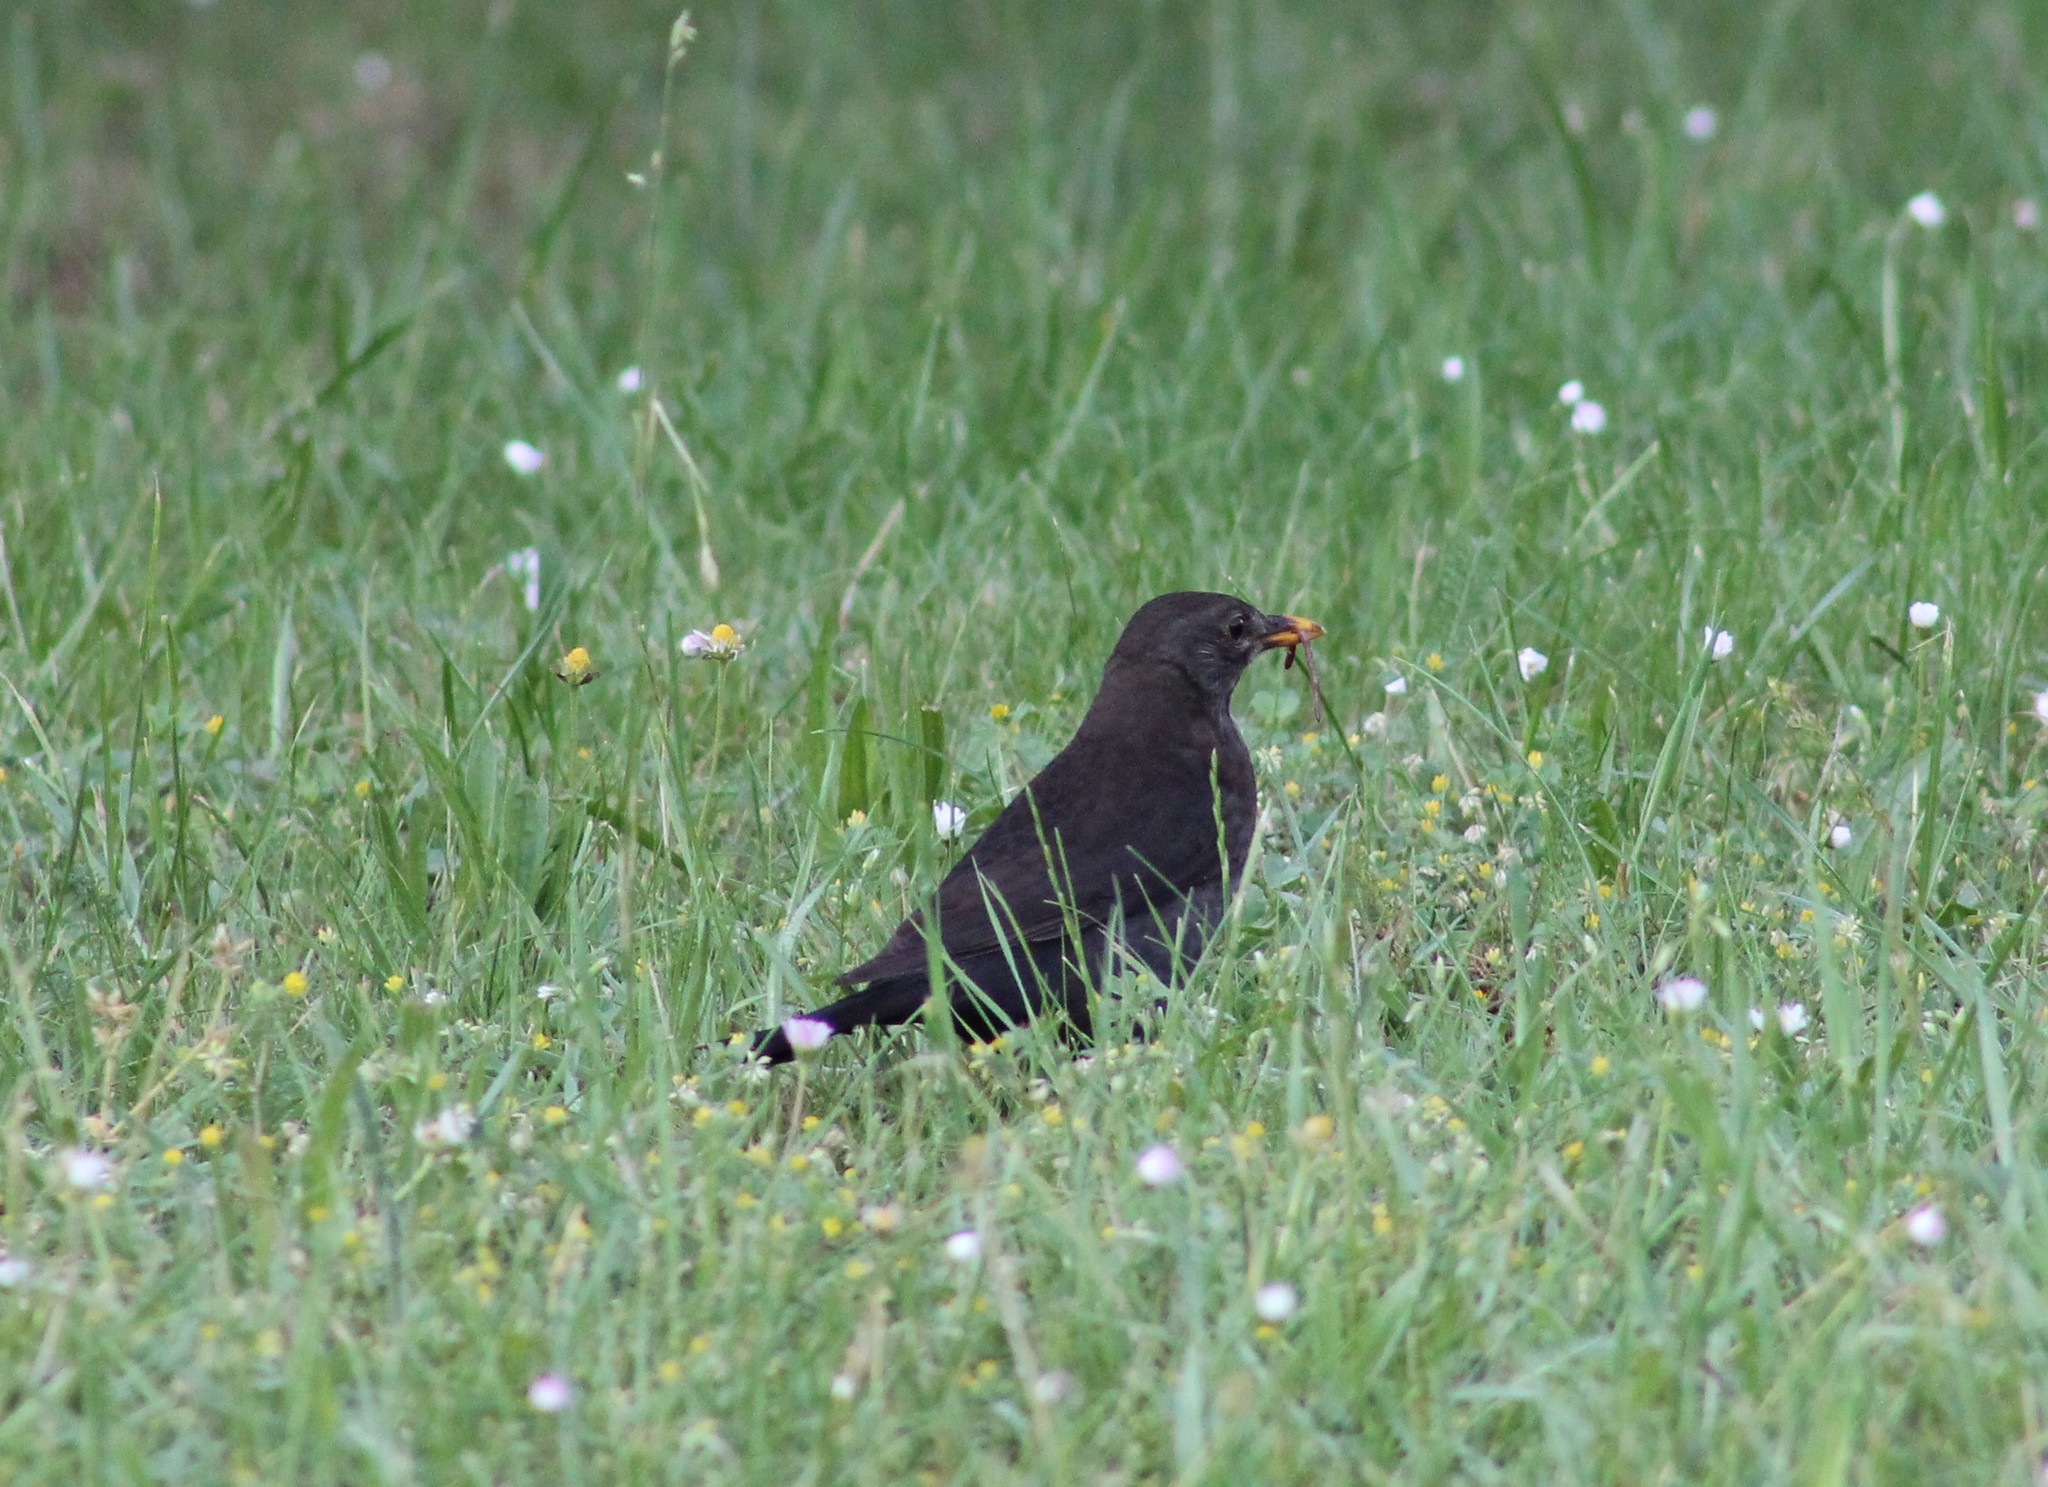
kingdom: Animalia
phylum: Chordata
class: Aves
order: Passeriformes
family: Turdidae
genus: Turdus
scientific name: Turdus merula
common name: Common blackbird
